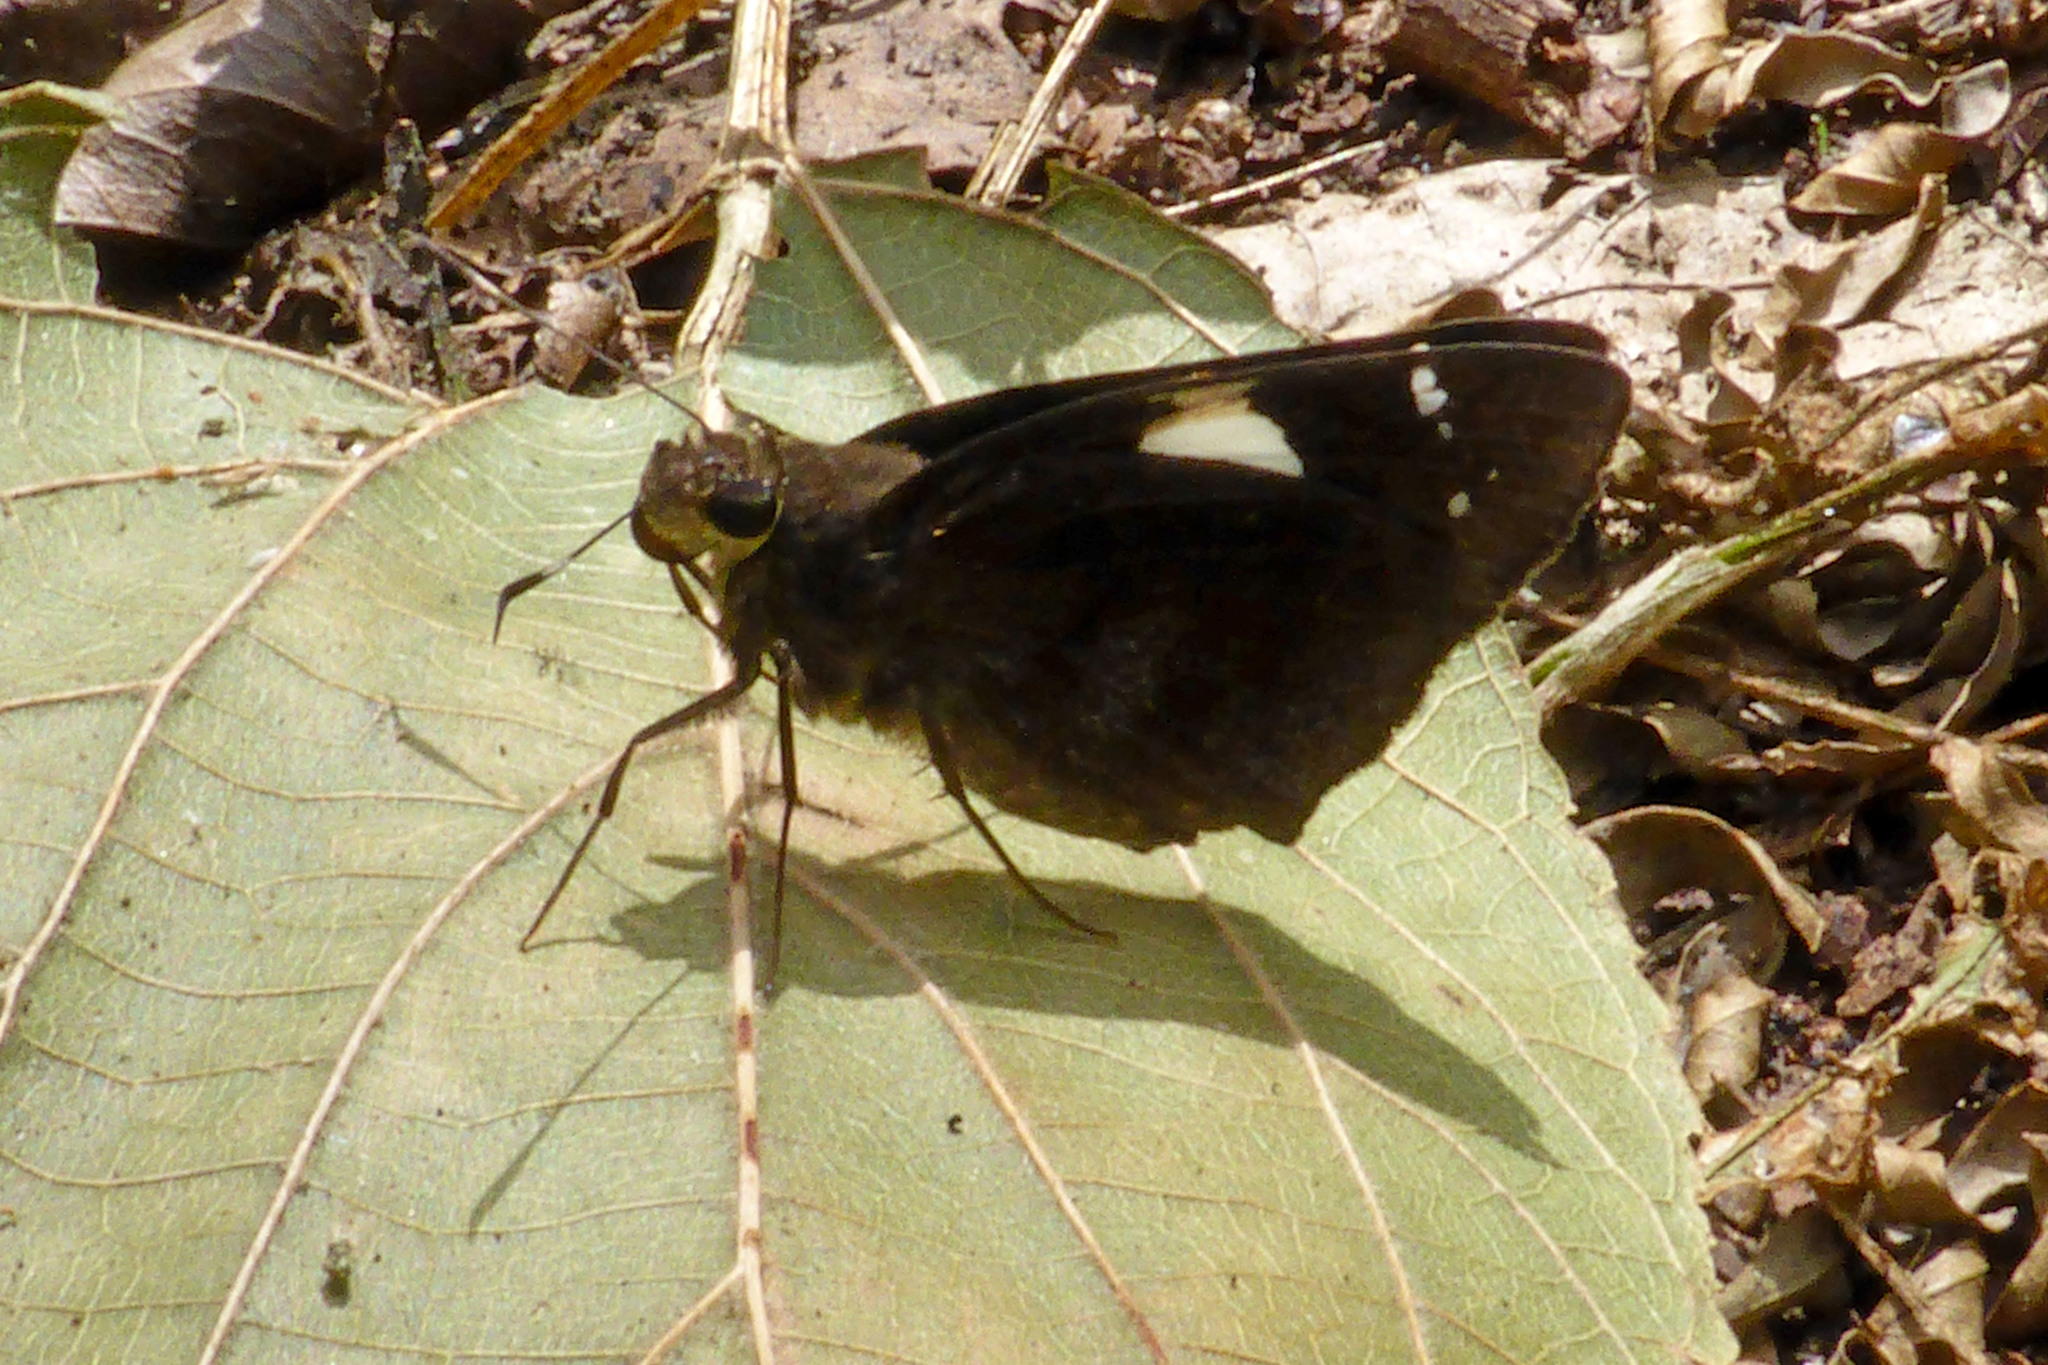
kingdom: Animalia
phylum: Arthropoda
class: Insecta
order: Lepidoptera
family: Hesperiidae
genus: Notocrypta
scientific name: Notocrypta feisthamelii
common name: Spotted demon
